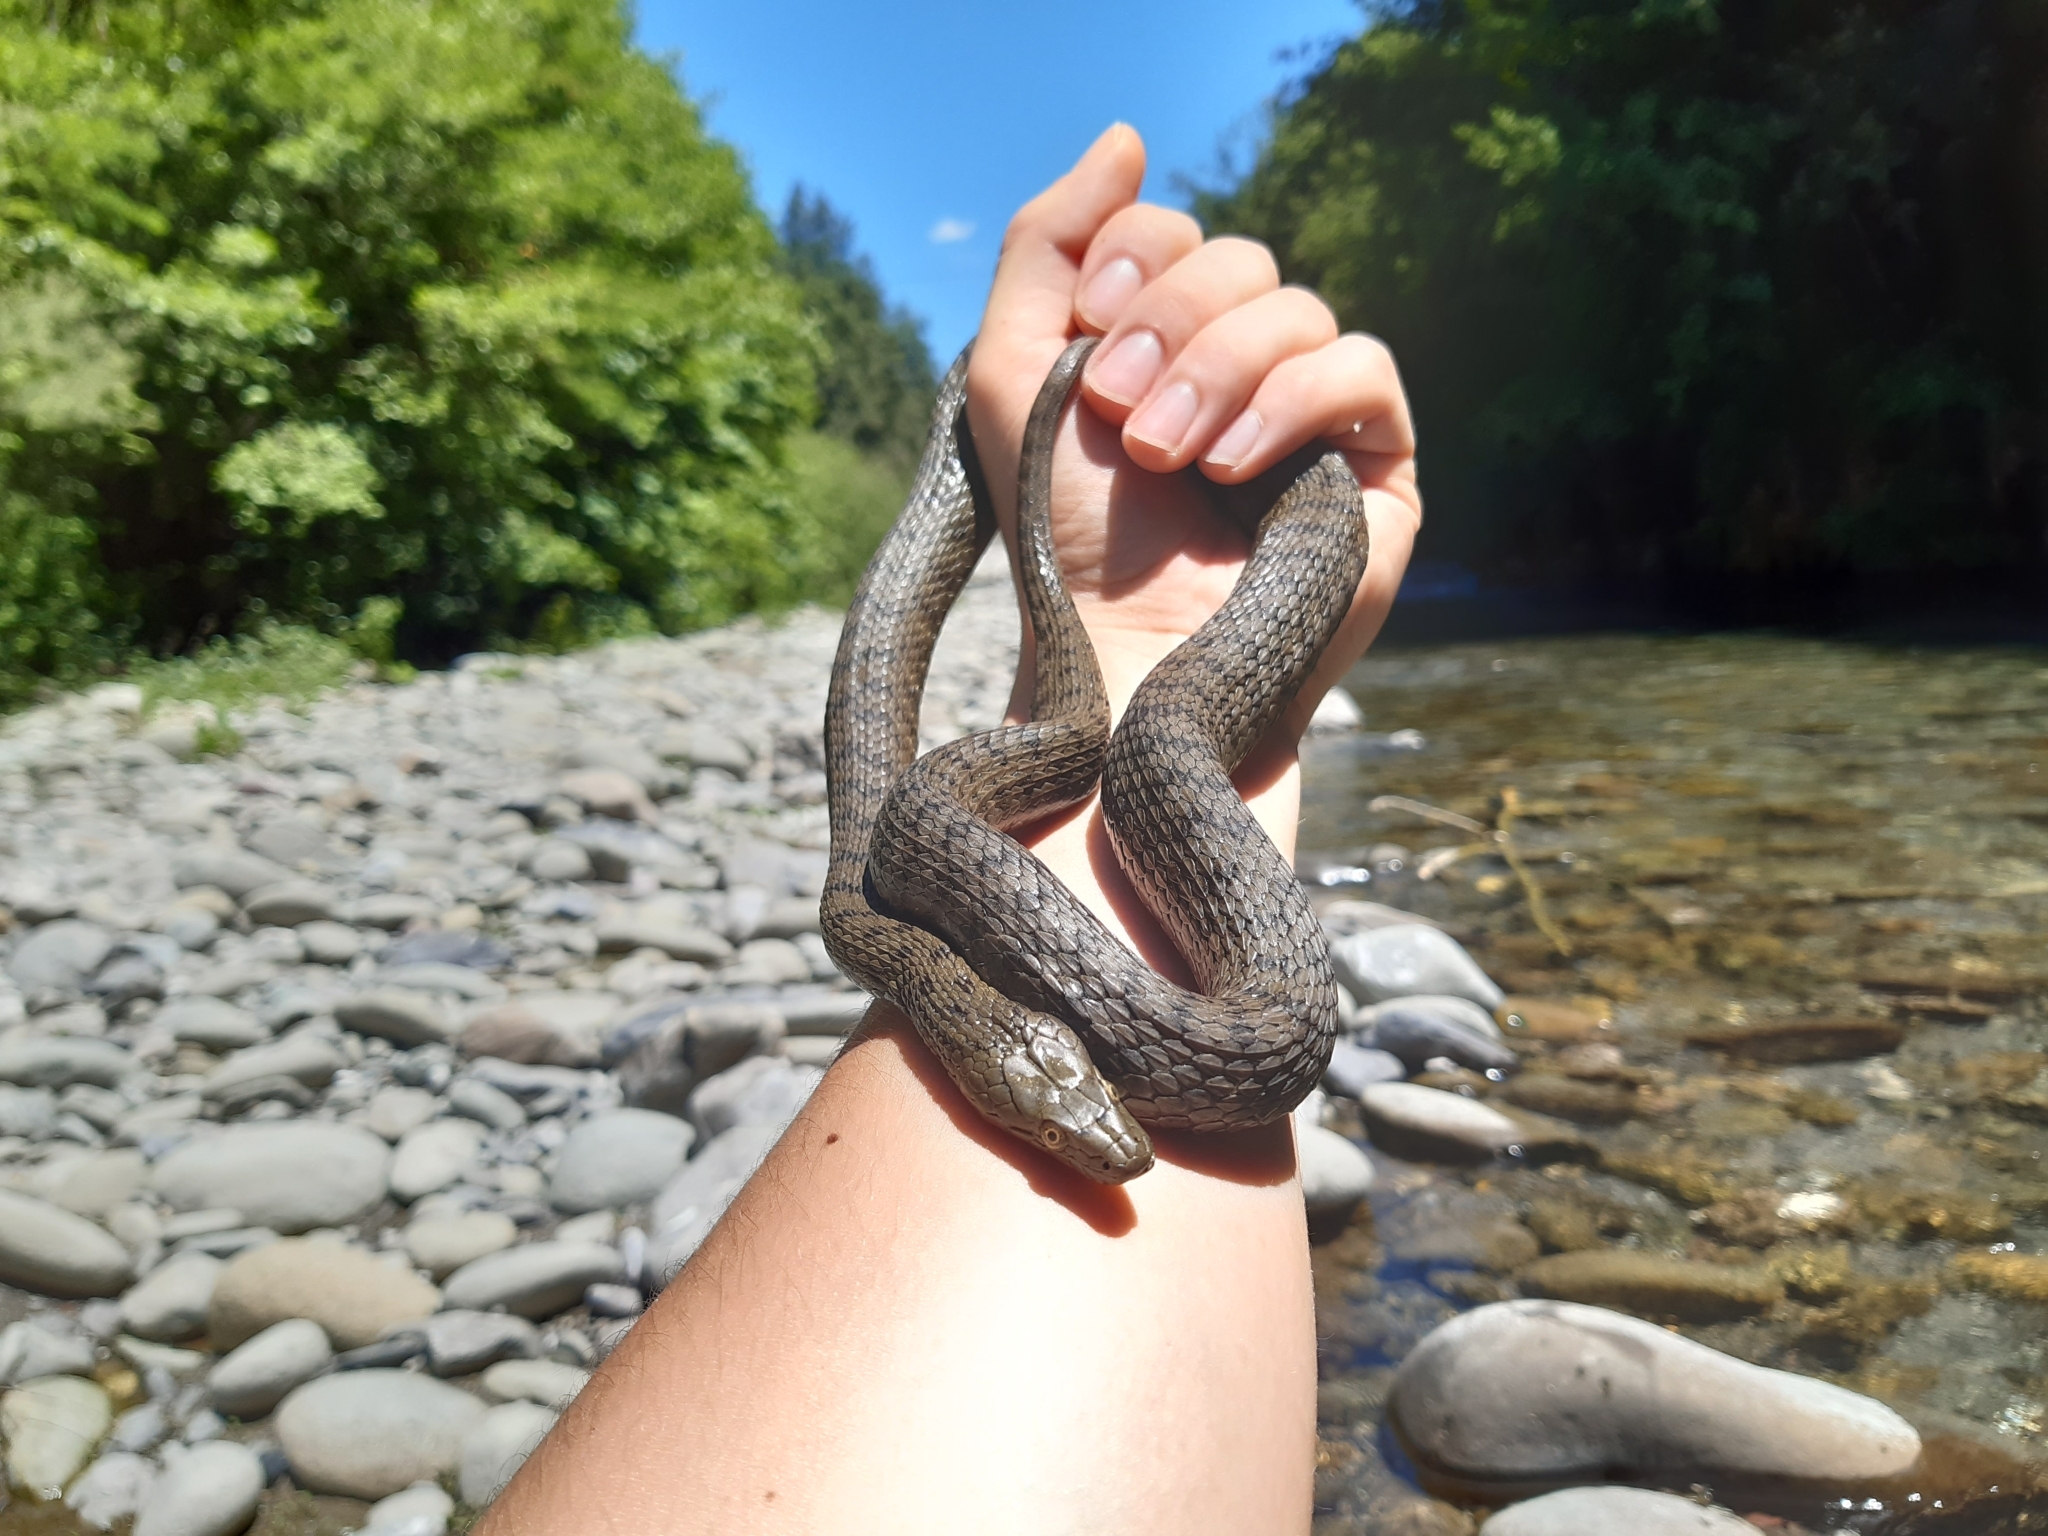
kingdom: Animalia
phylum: Chordata
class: Squamata
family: Colubridae
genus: Natrix
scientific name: Natrix tessellata
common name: Dice snake
